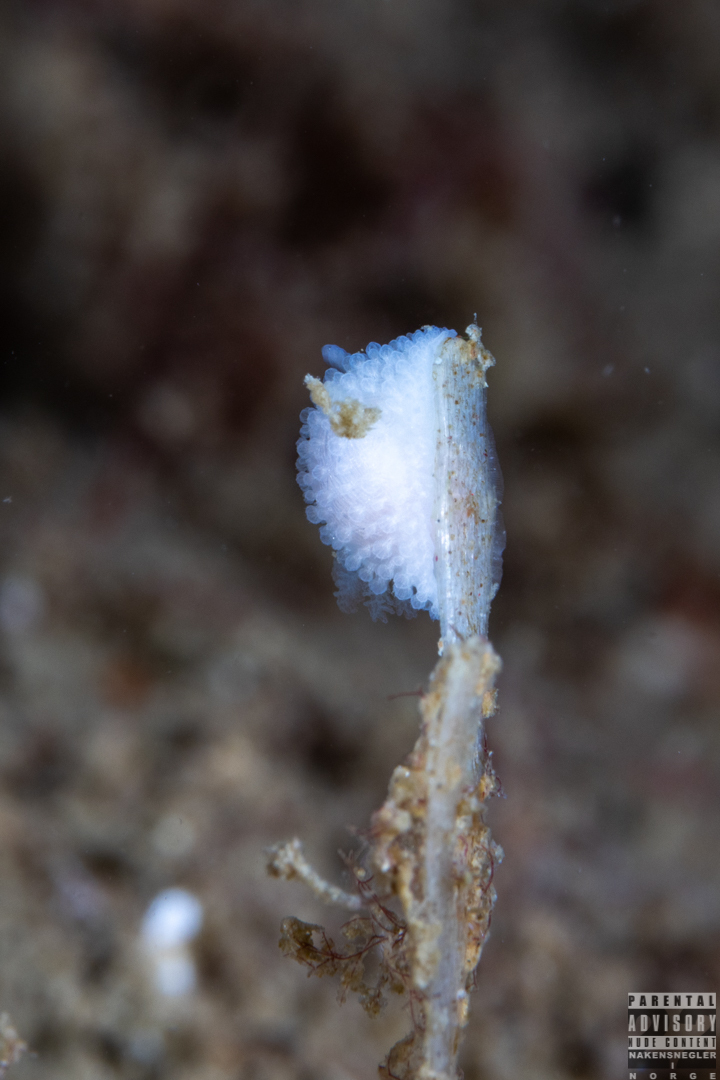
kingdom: Animalia
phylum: Mollusca
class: Gastropoda
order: Nudibranchia
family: Onchidorididae
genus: Onchidoris
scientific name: Onchidoris muricata
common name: Rough doris
